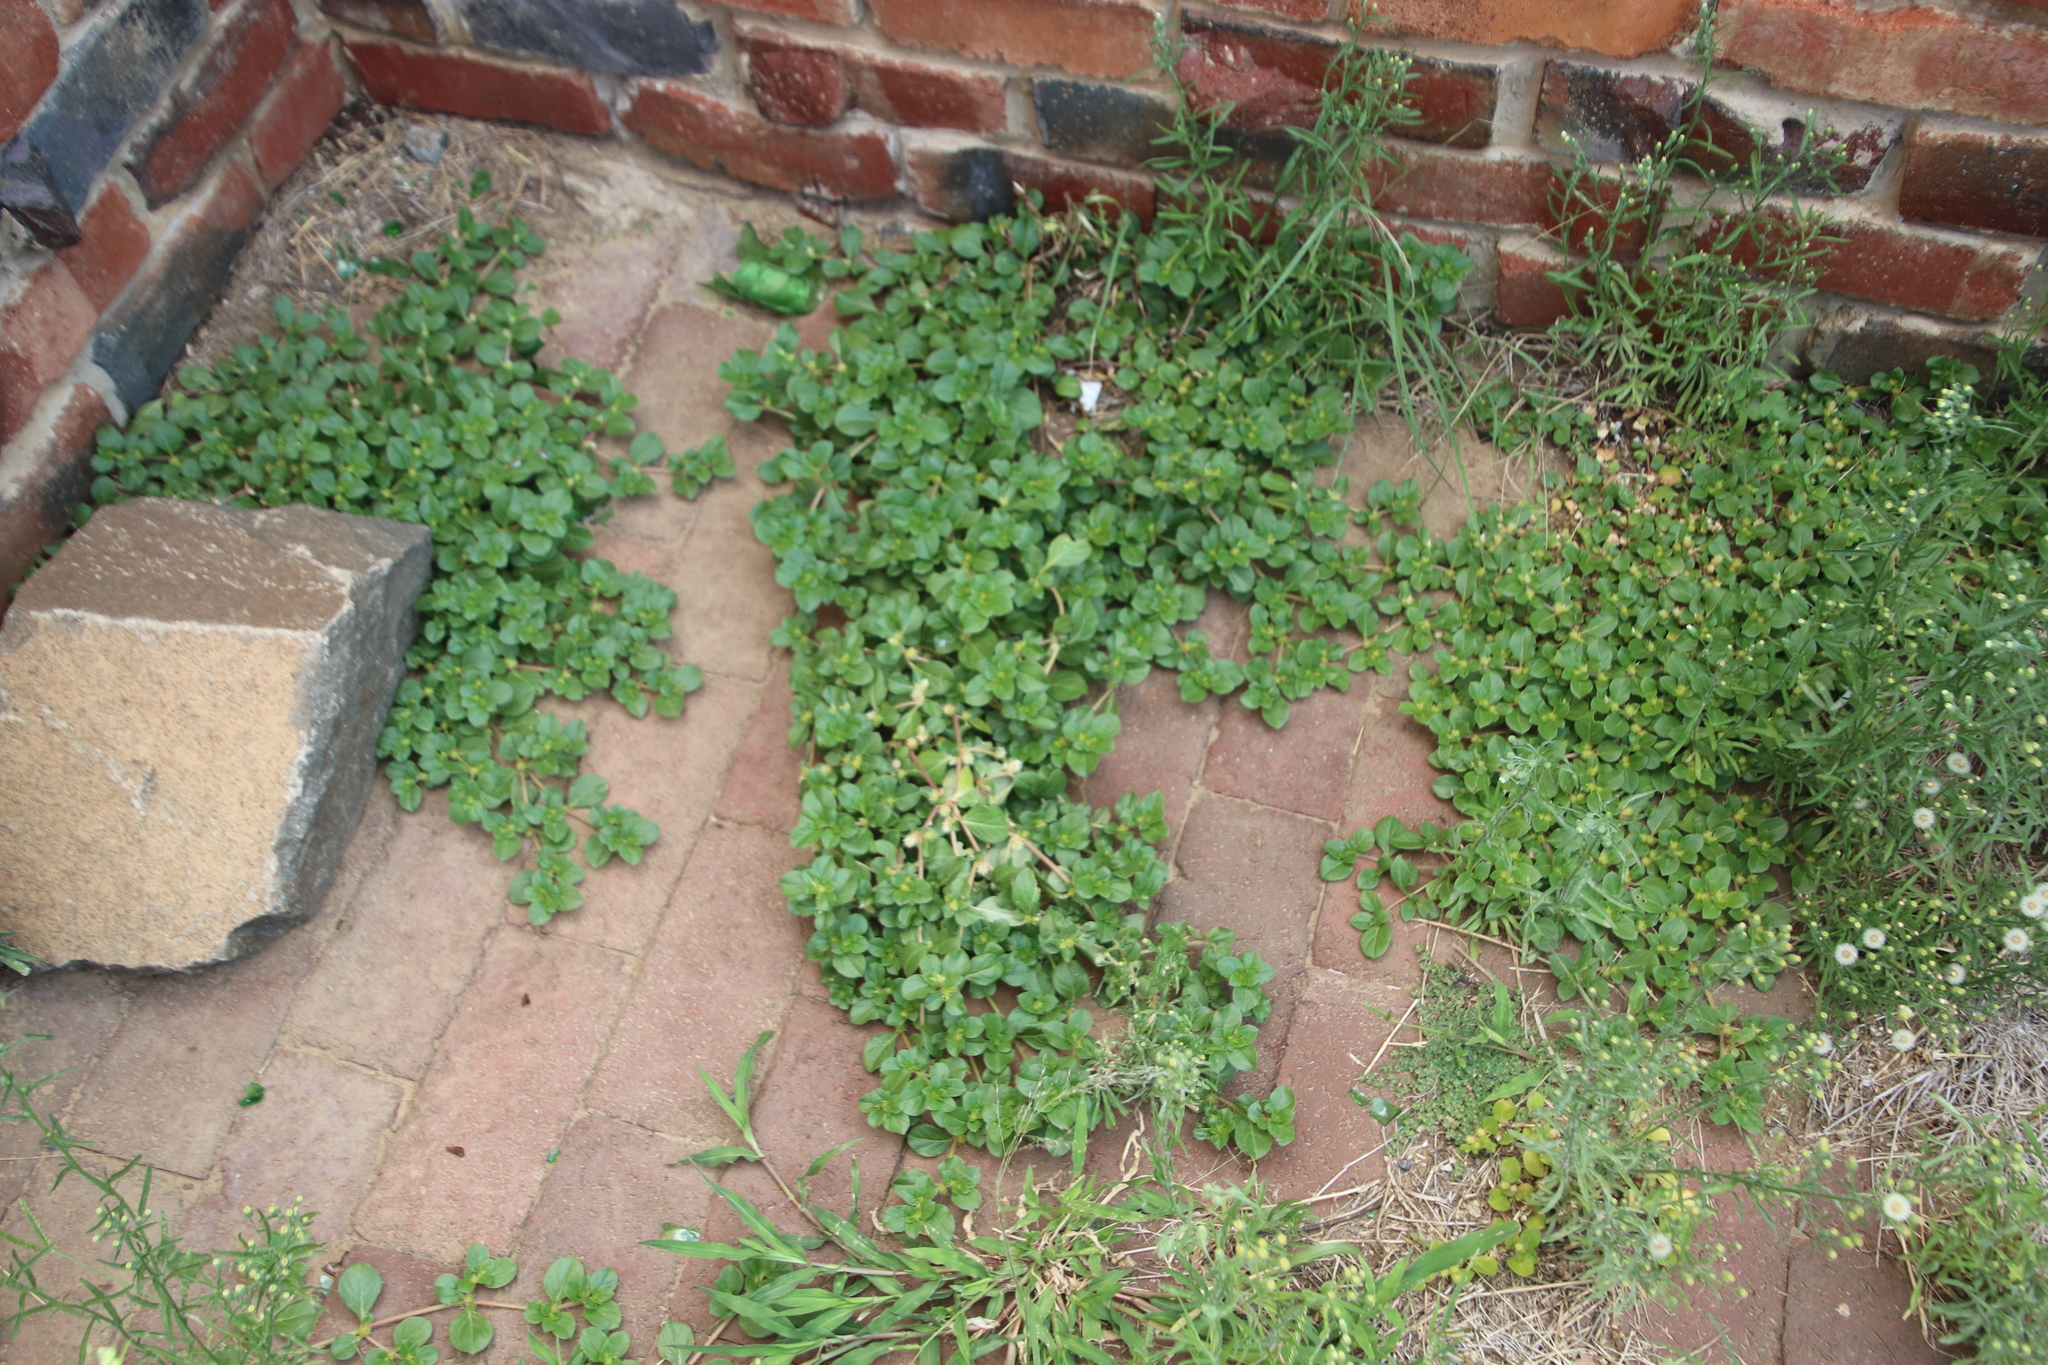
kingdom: Plantae
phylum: Tracheophyta
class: Magnoliopsida
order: Caryophyllales
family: Amaranthaceae
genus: Alternanthera
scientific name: Alternanthera pungens
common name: Khakiweed
